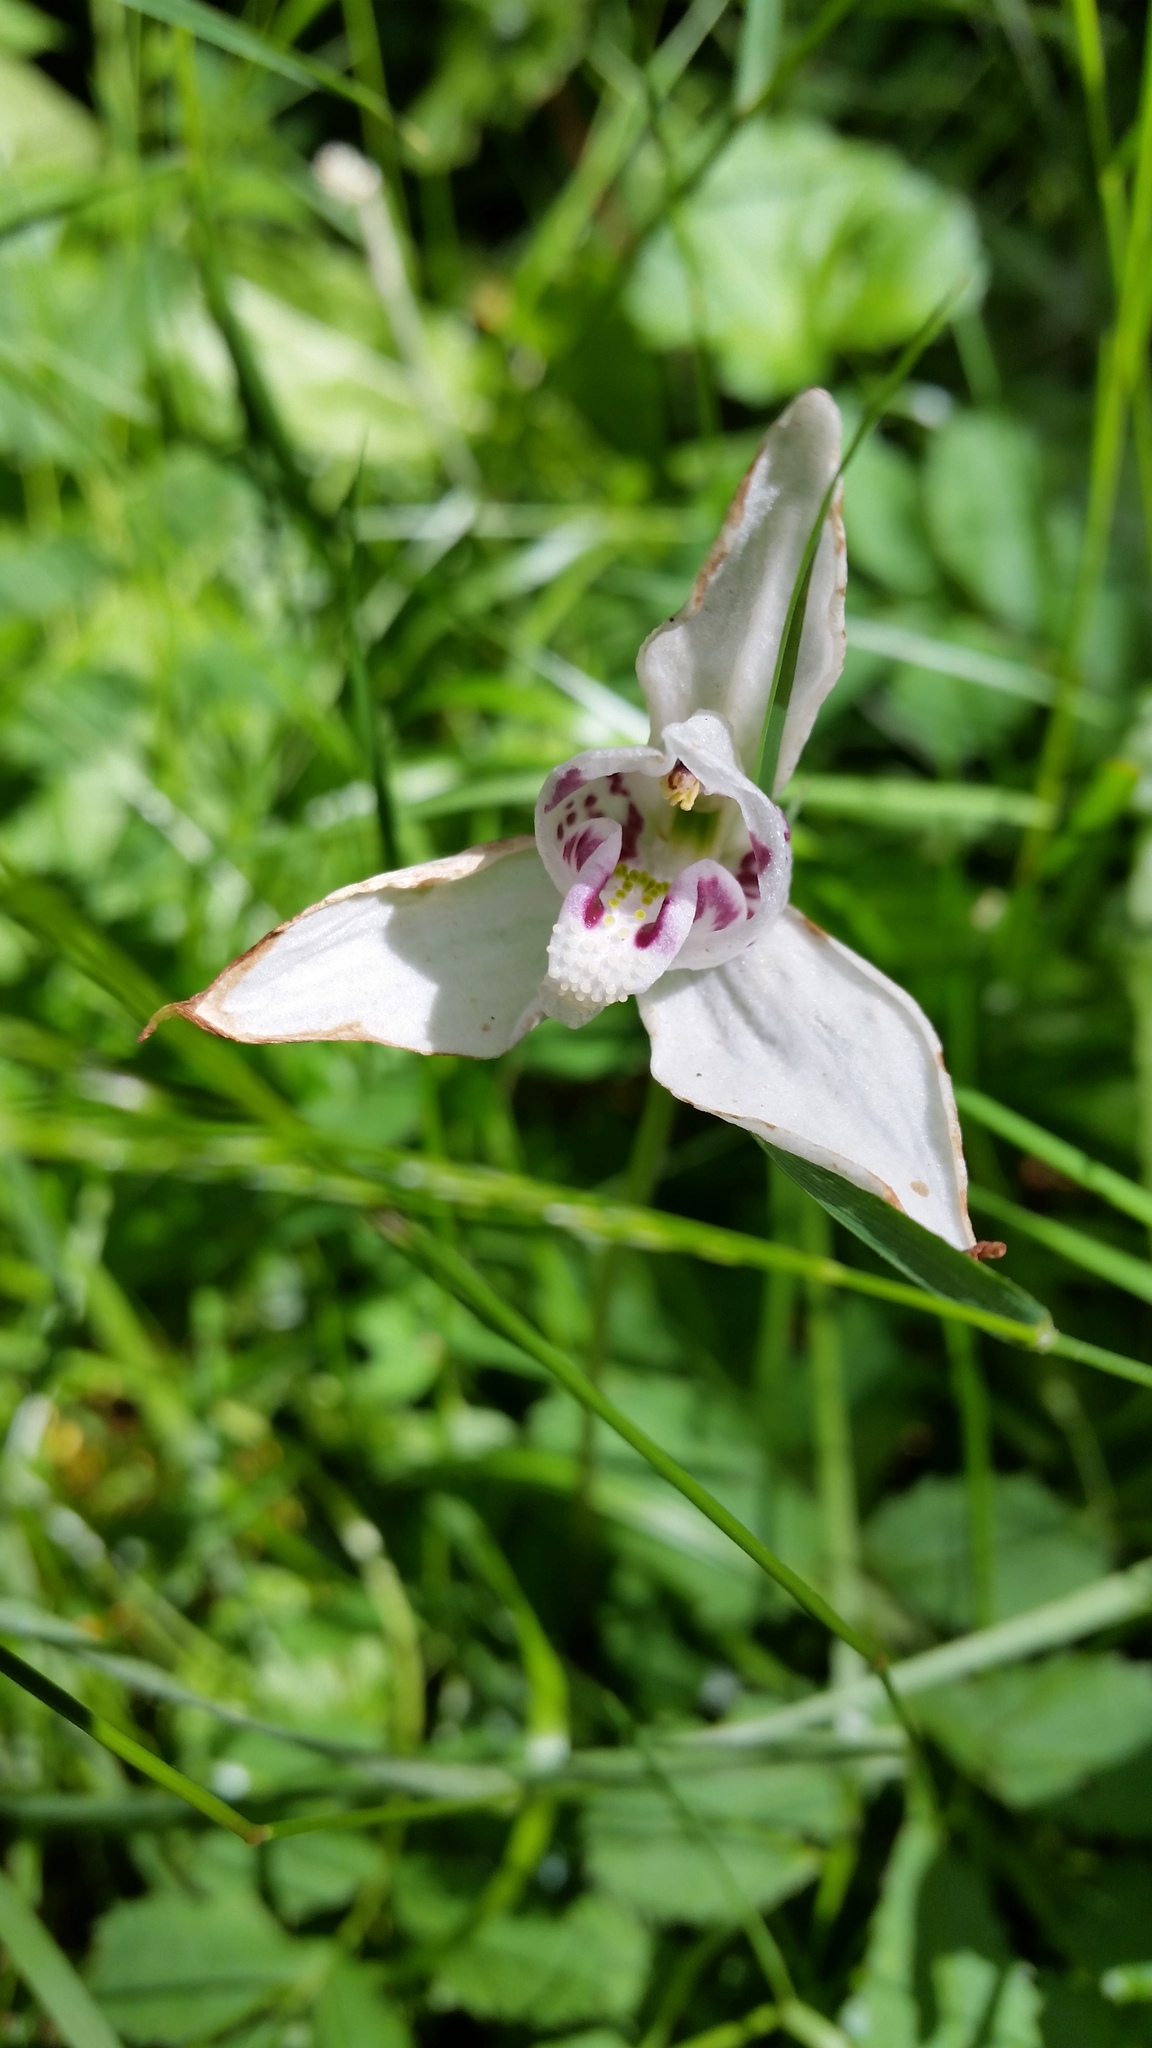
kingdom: Plantae
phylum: Tracheophyta
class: Liliopsida
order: Asparagales
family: Orchidaceae
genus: Codonorchis
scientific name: Codonorchis lessonii
